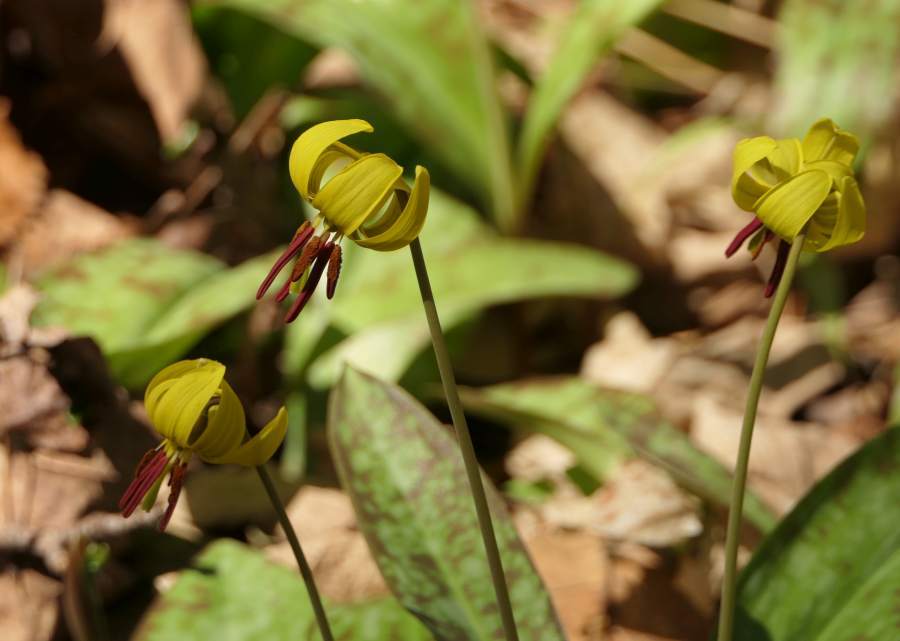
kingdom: Plantae
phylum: Tracheophyta
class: Liliopsida
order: Liliales
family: Liliaceae
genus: Erythronium
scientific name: Erythronium americanum
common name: Yellow adder's-tongue
